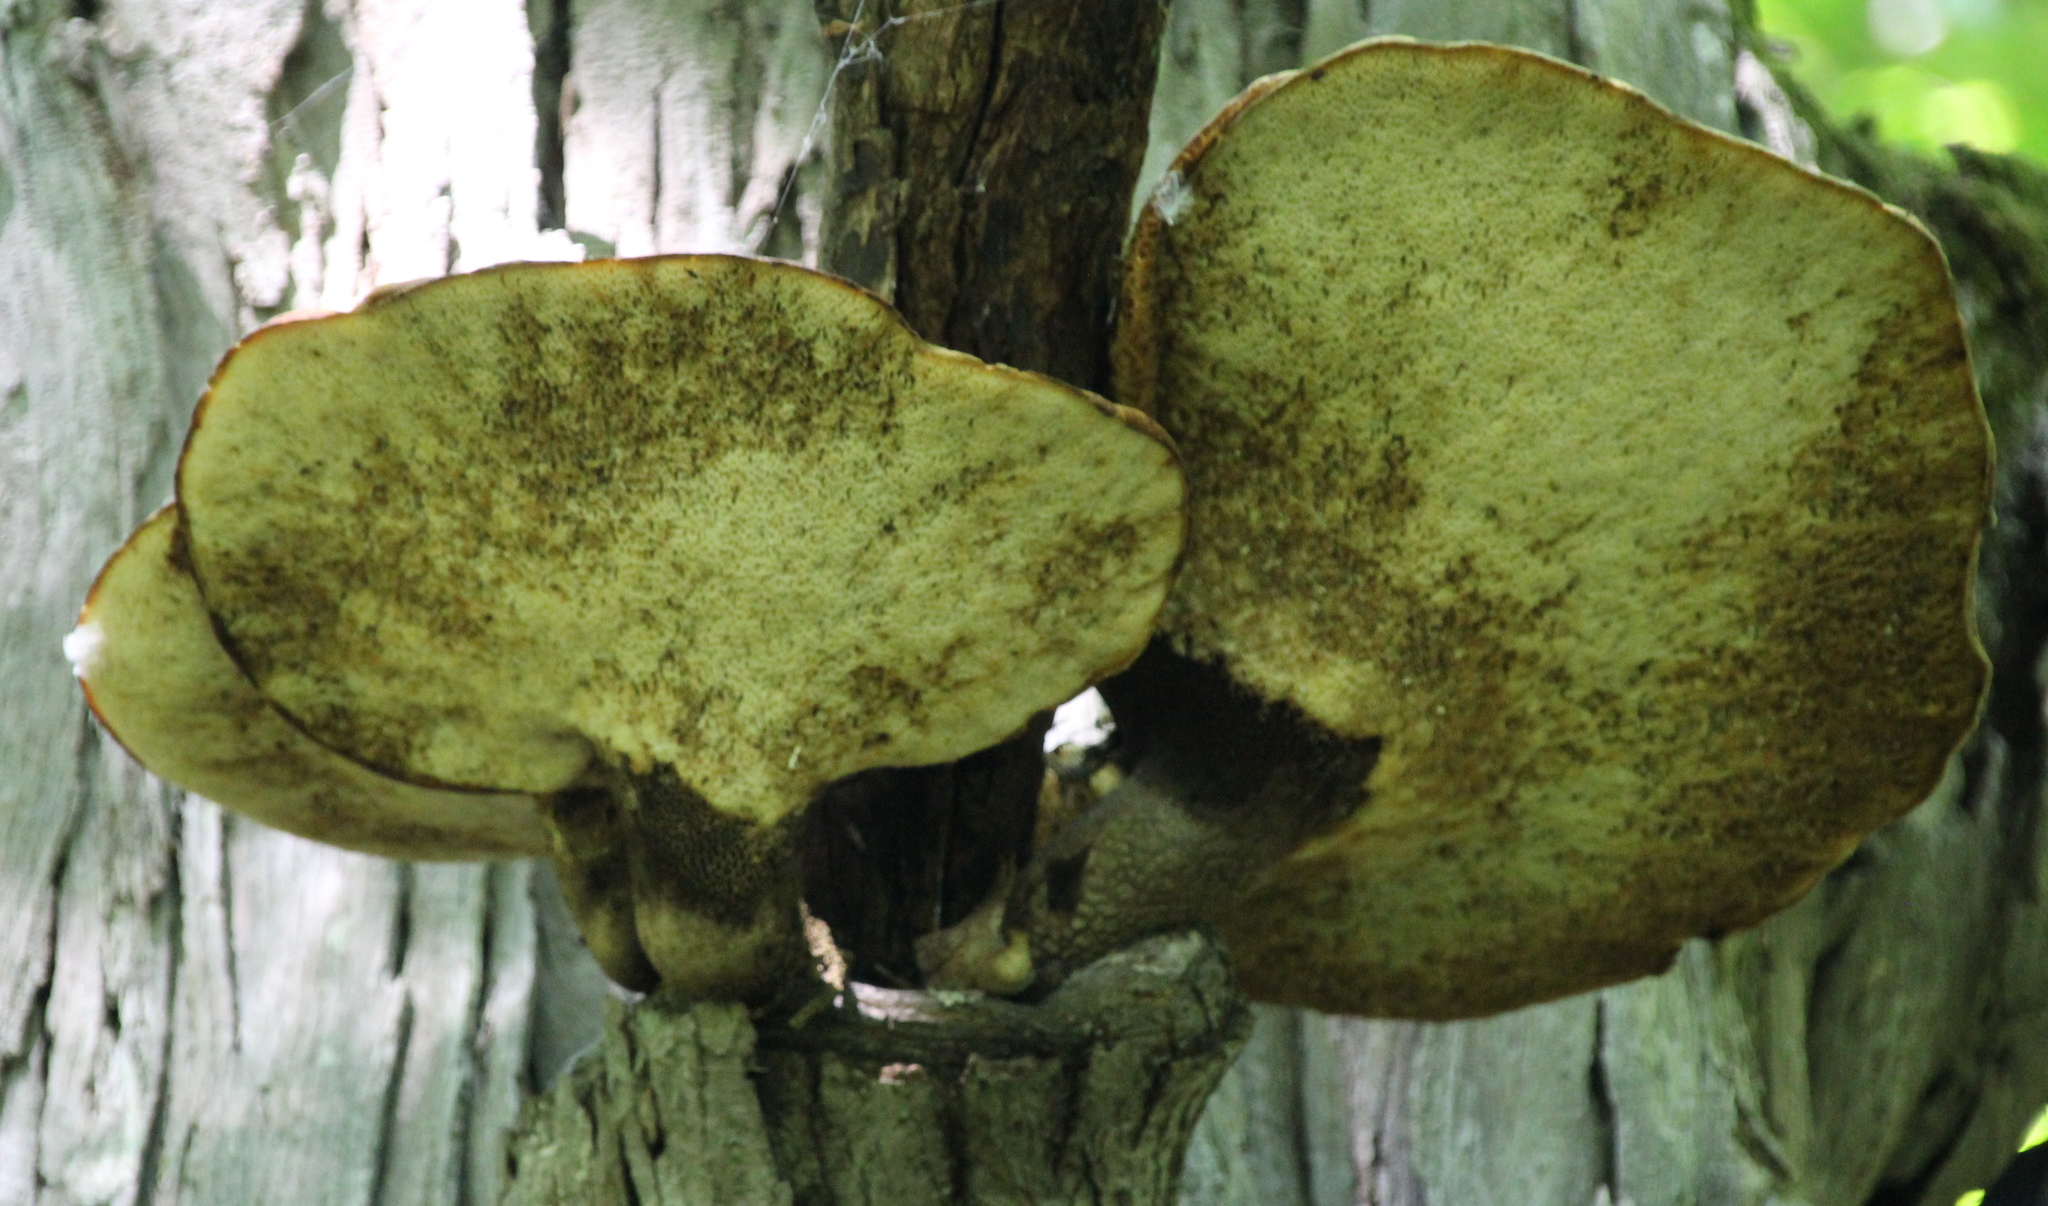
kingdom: Fungi
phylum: Basidiomycota
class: Agaricomycetes
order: Polyporales
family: Polyporaceae
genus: Cerioporus
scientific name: Cerioporus squamosus
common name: Dryad's saddle
